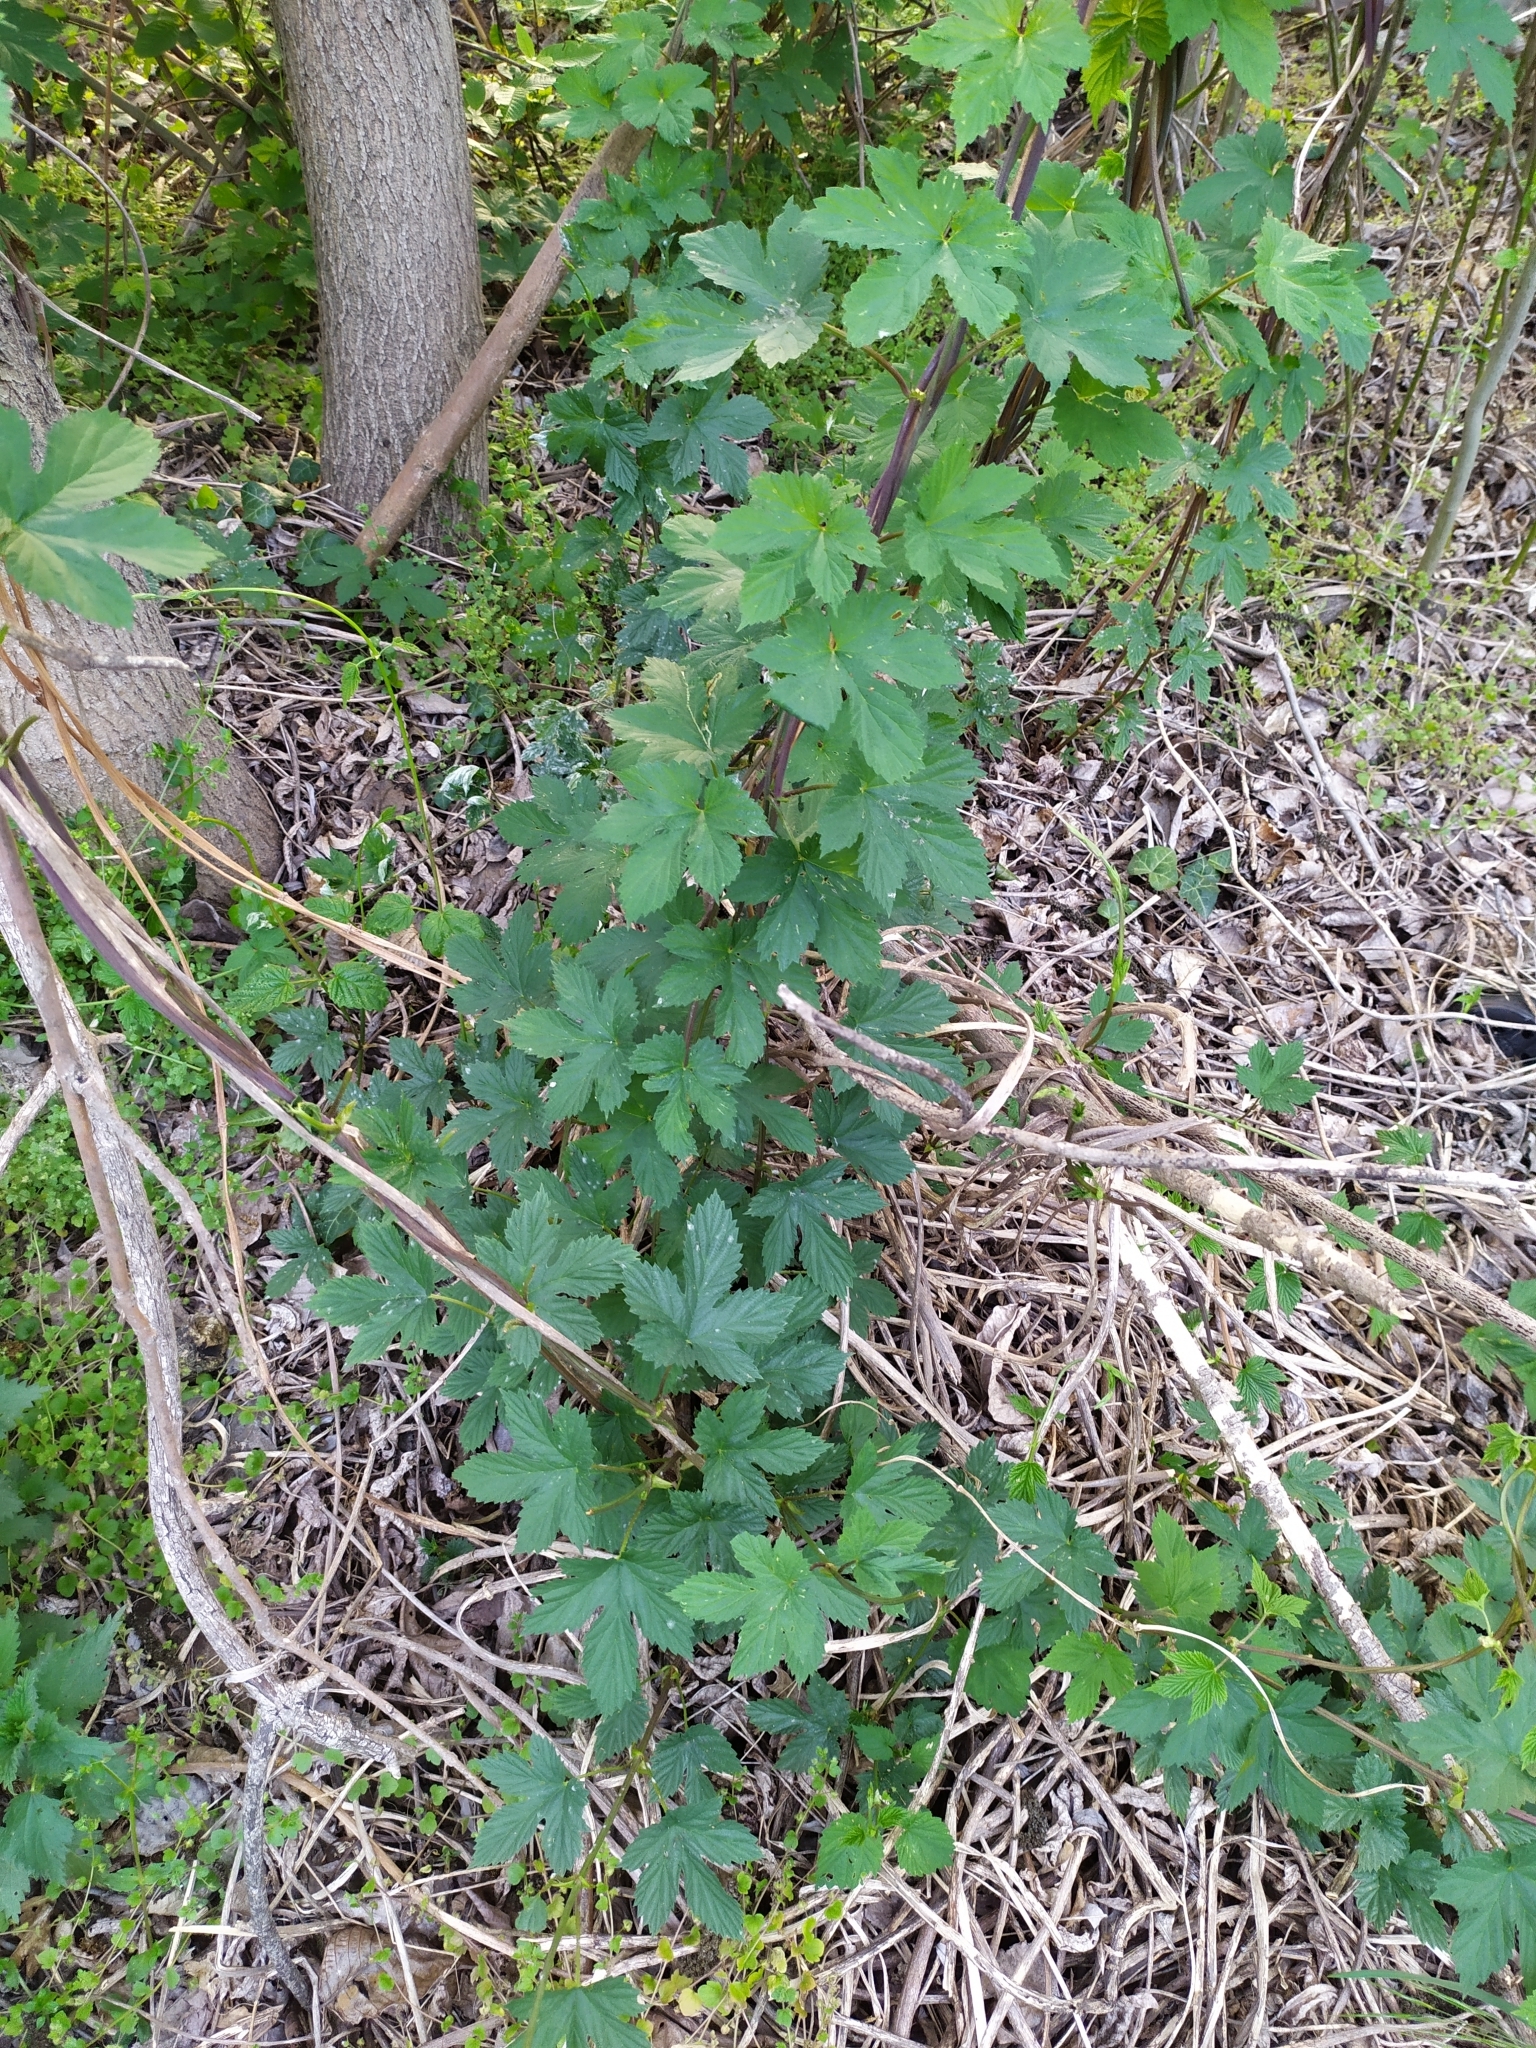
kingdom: Plantae
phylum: Tracheophyta
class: Magnoliopsida
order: Rosales
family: Cannabaceae
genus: Humulus
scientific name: Humulus lupulus
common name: Hop
